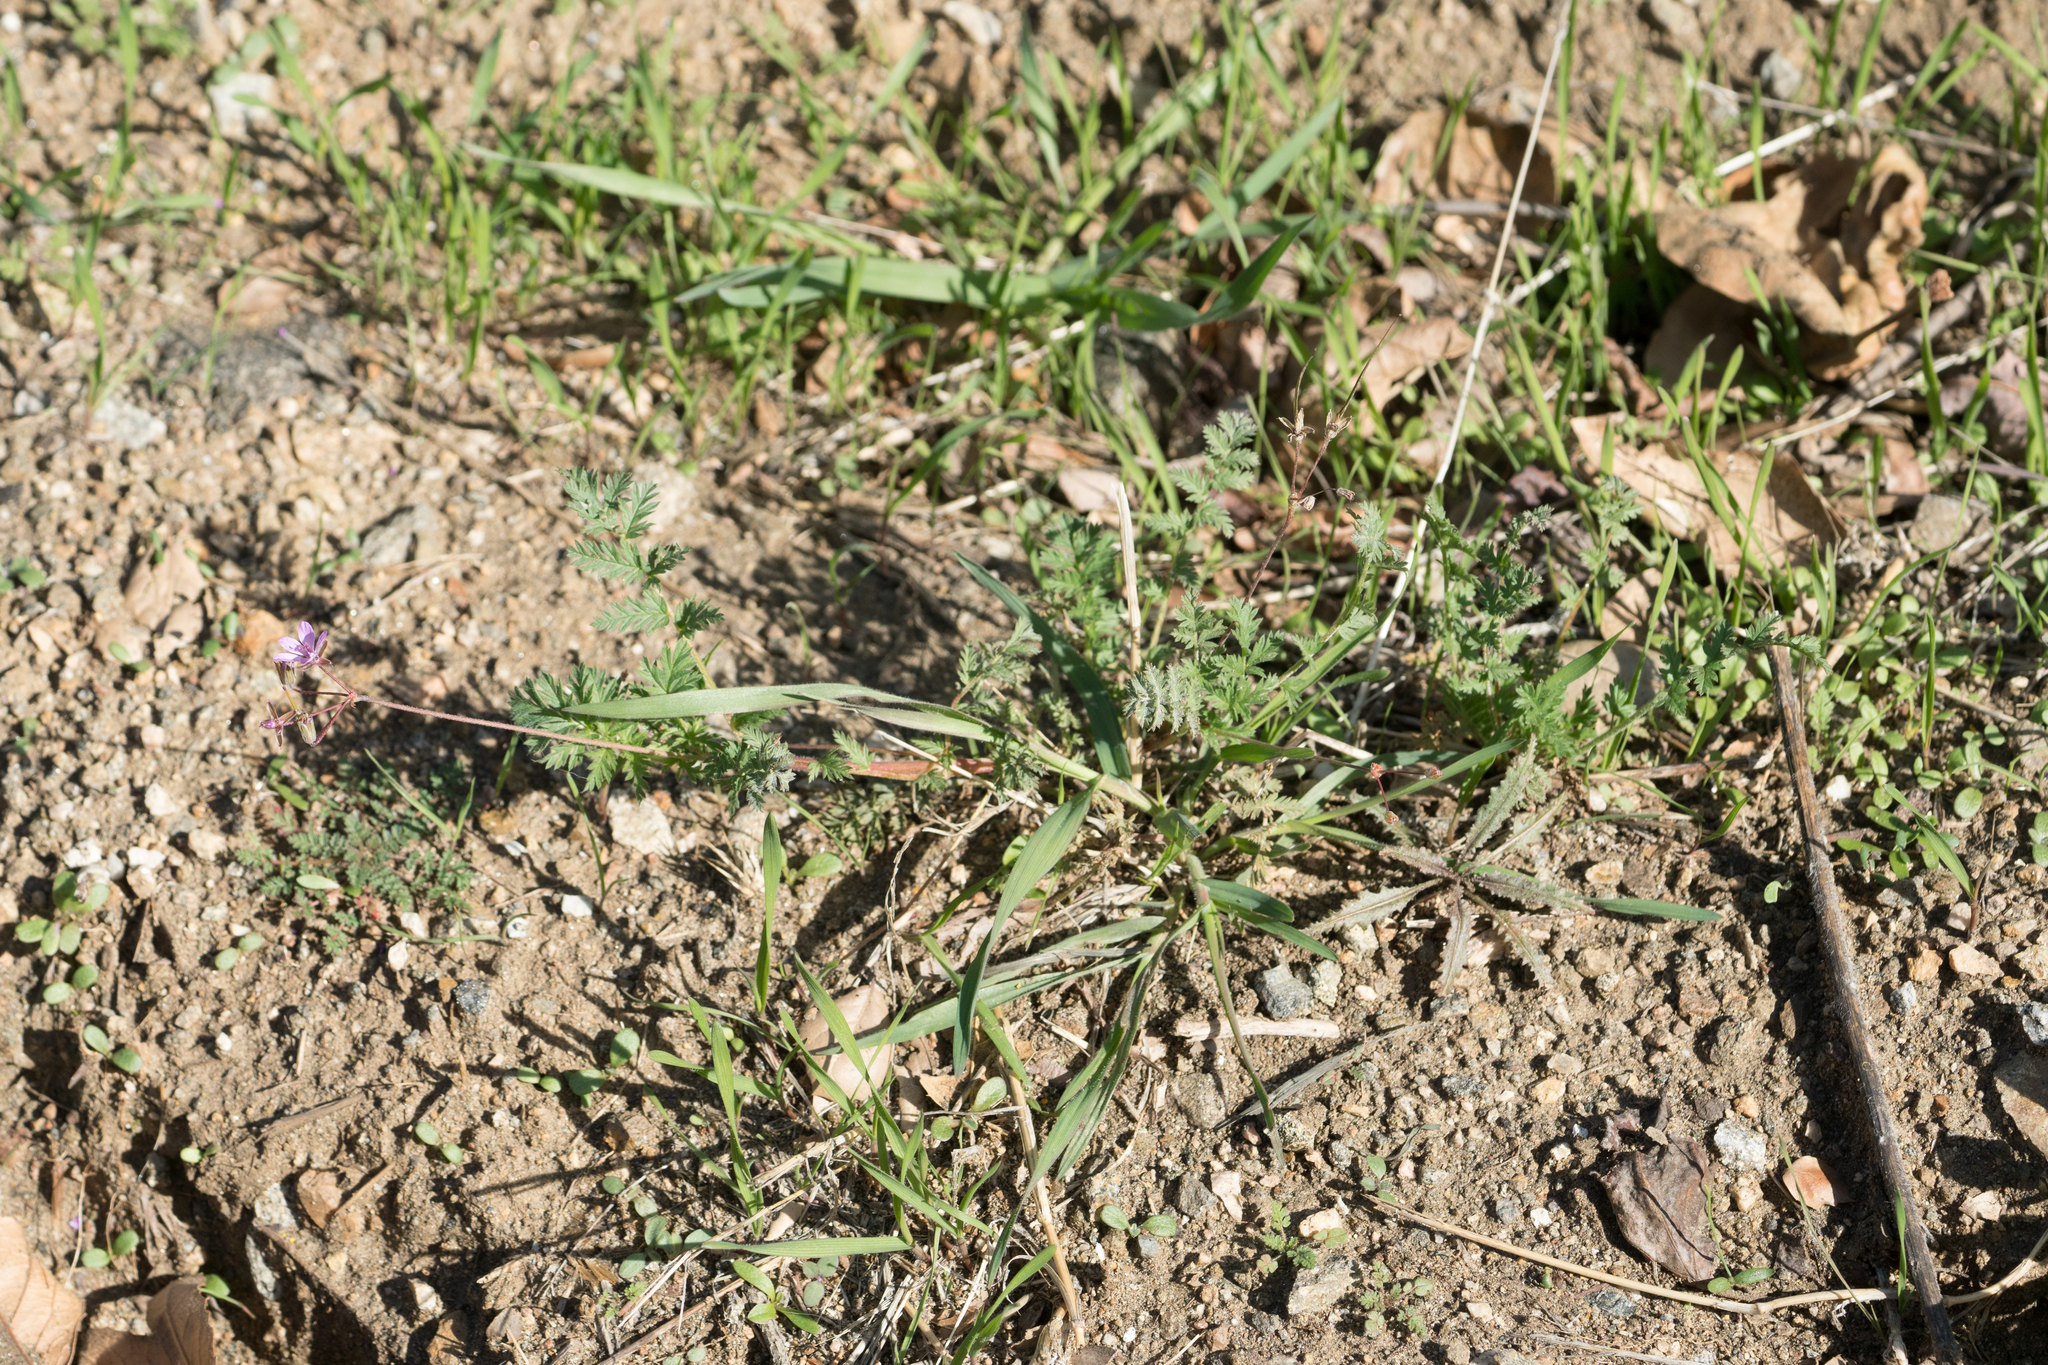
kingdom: Plantae
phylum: Tracheophyta
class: Magnoliopsida
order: Geraniales
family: Geraniaceae
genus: Erodium
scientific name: Erodium cicutarium
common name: Common stork's-bill
